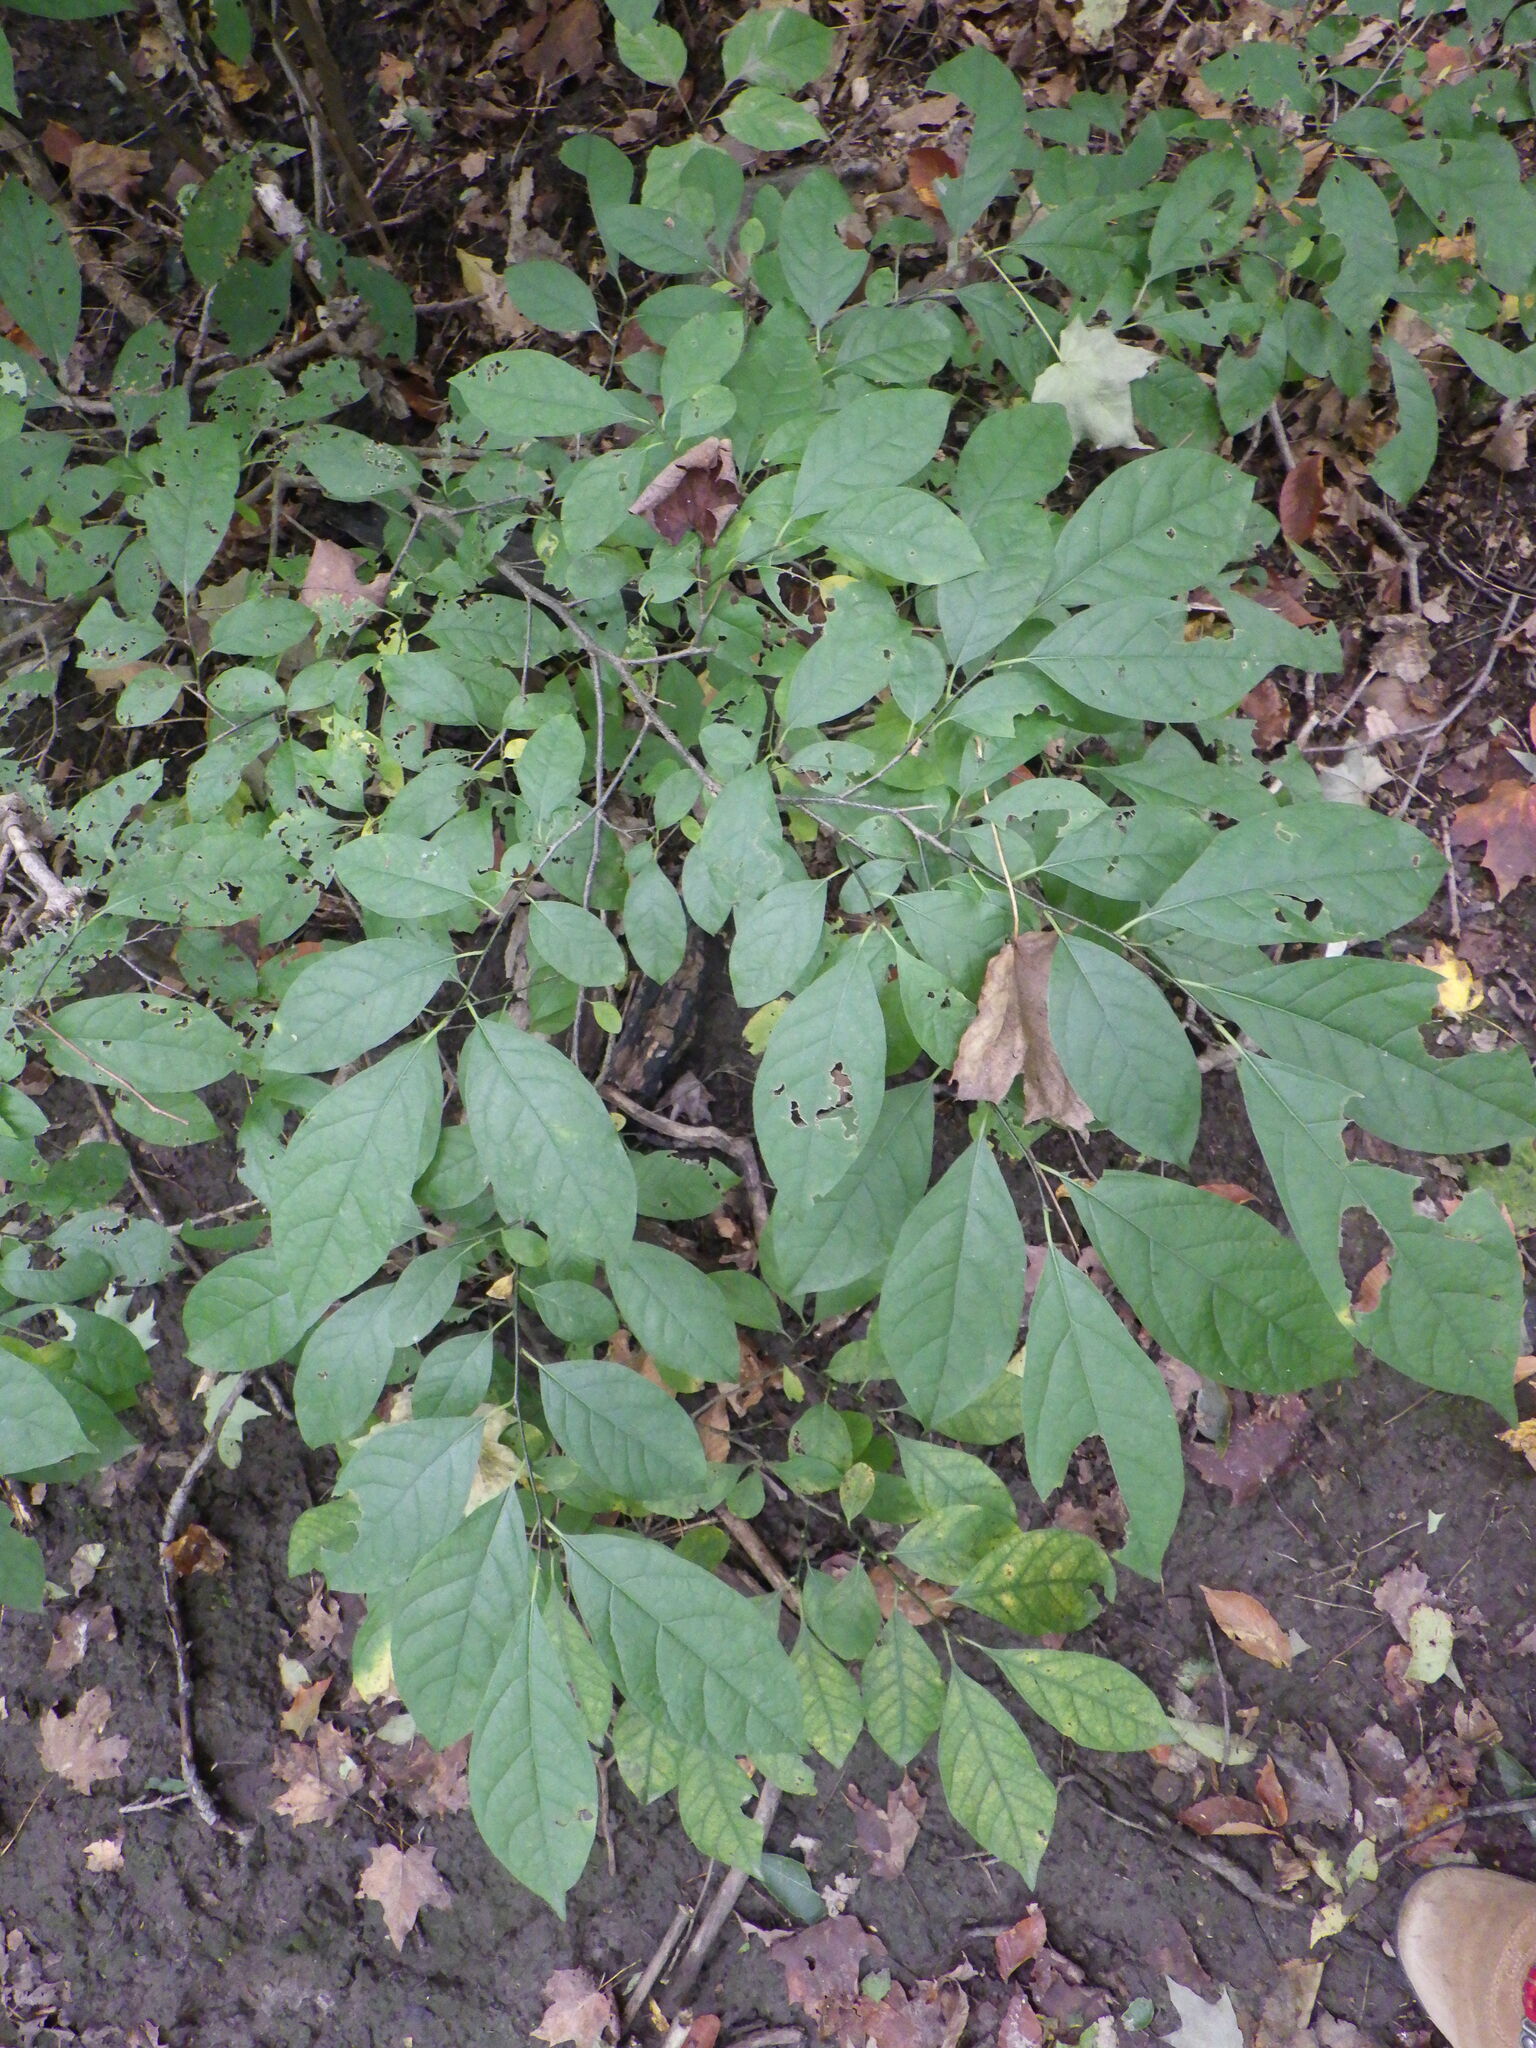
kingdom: Plantae
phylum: Tracheophyta
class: Magnoliopsida
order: Laurales
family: Lauraceae
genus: Lindera
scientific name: Lindera benzoin
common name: Spicebush
